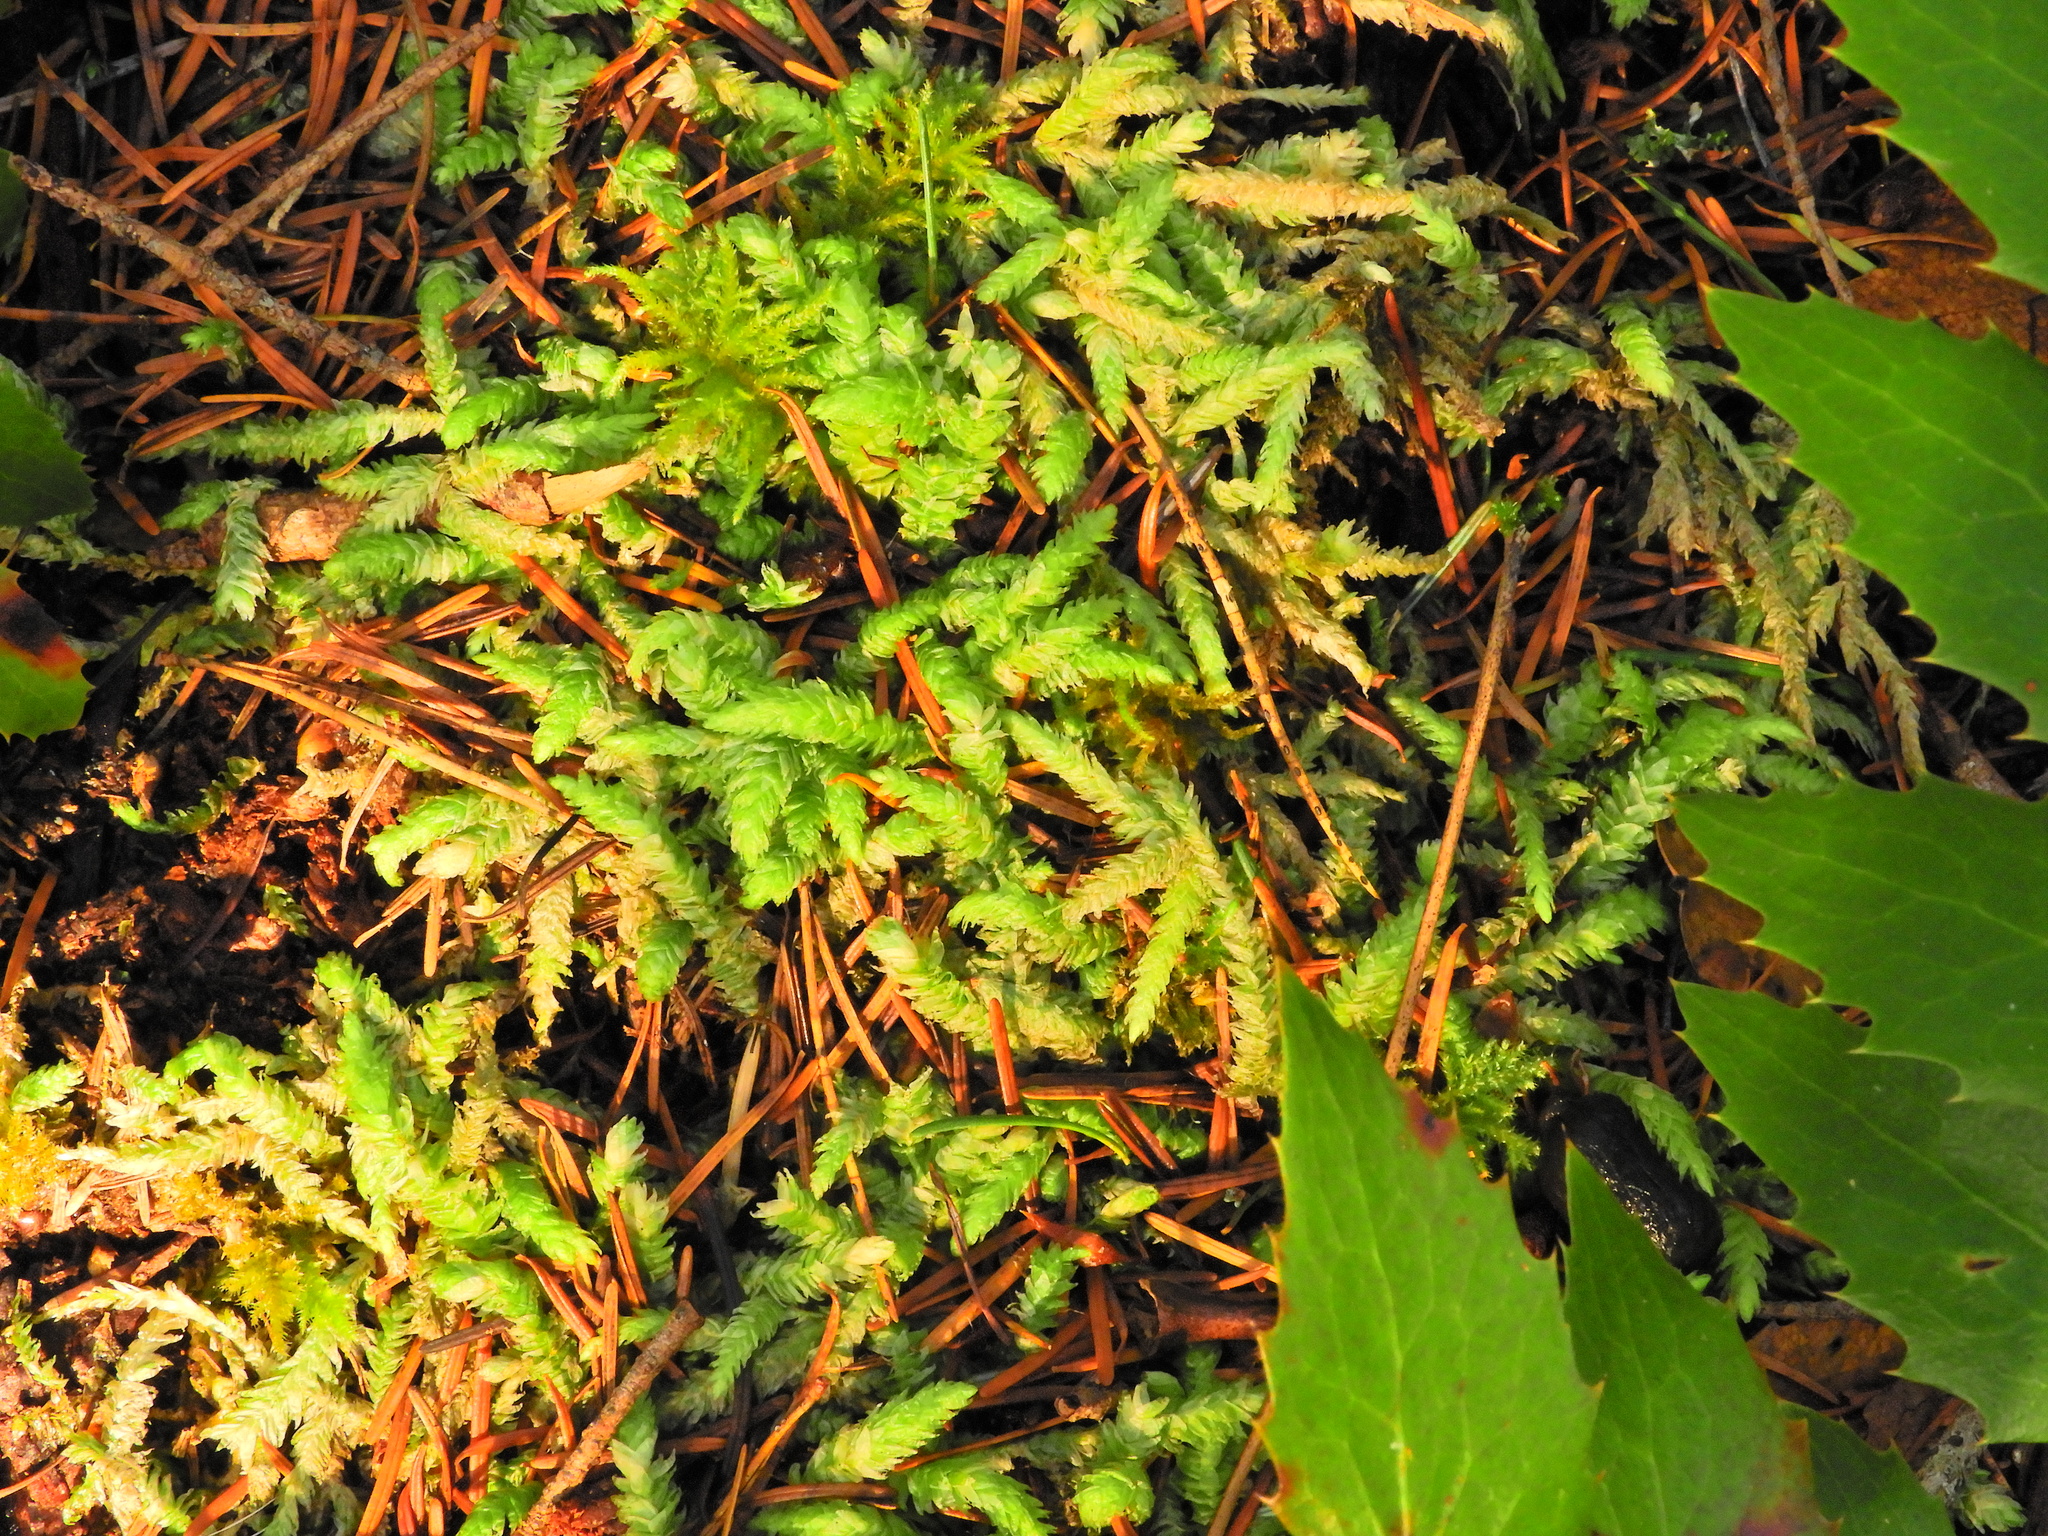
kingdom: Plantae
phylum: Bryophyta
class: Bryopsida
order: Hypnales
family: Plagiotheciaceae
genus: Plagiothecium
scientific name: Plagiothecium undulatum
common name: Waved silk-moss
